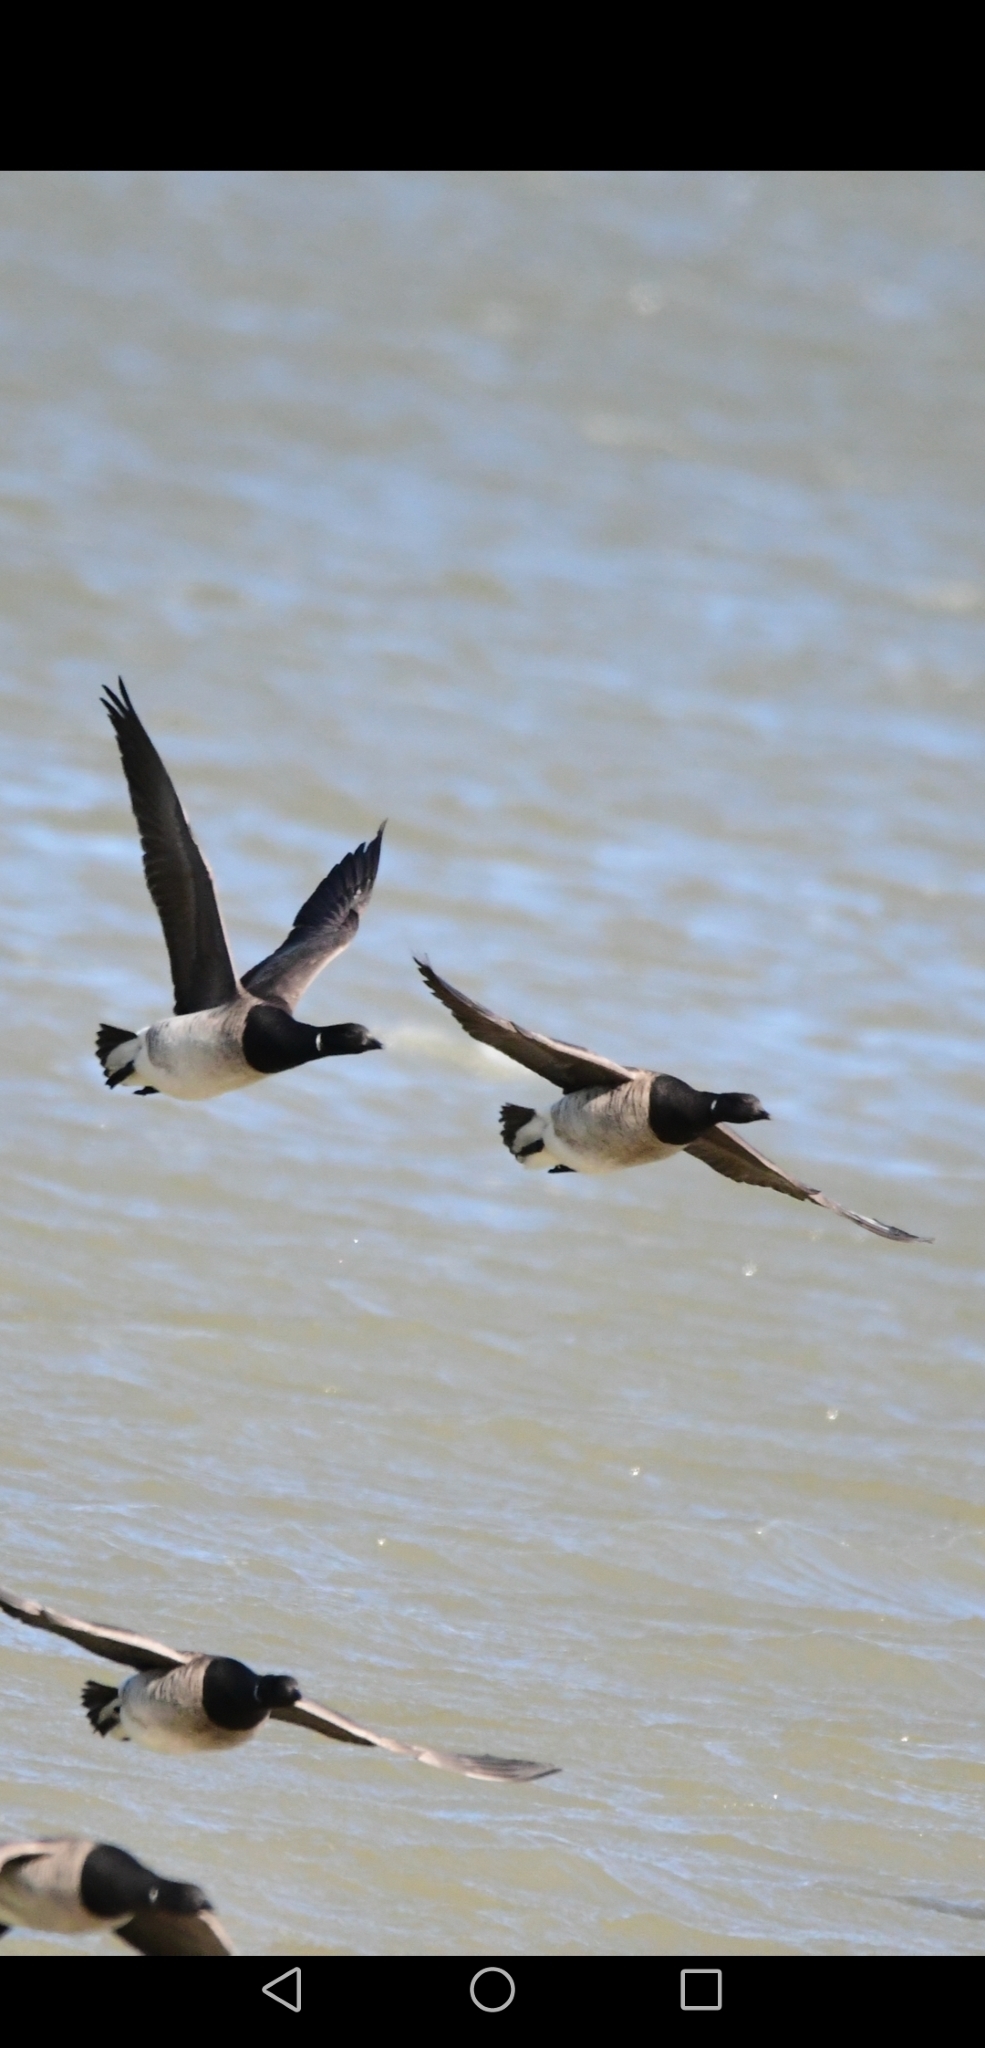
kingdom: Animalia
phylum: Chordata
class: Aves
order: Anseriformes
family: Anatidae
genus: Branta
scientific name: Branta bernicla
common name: Brant goose
